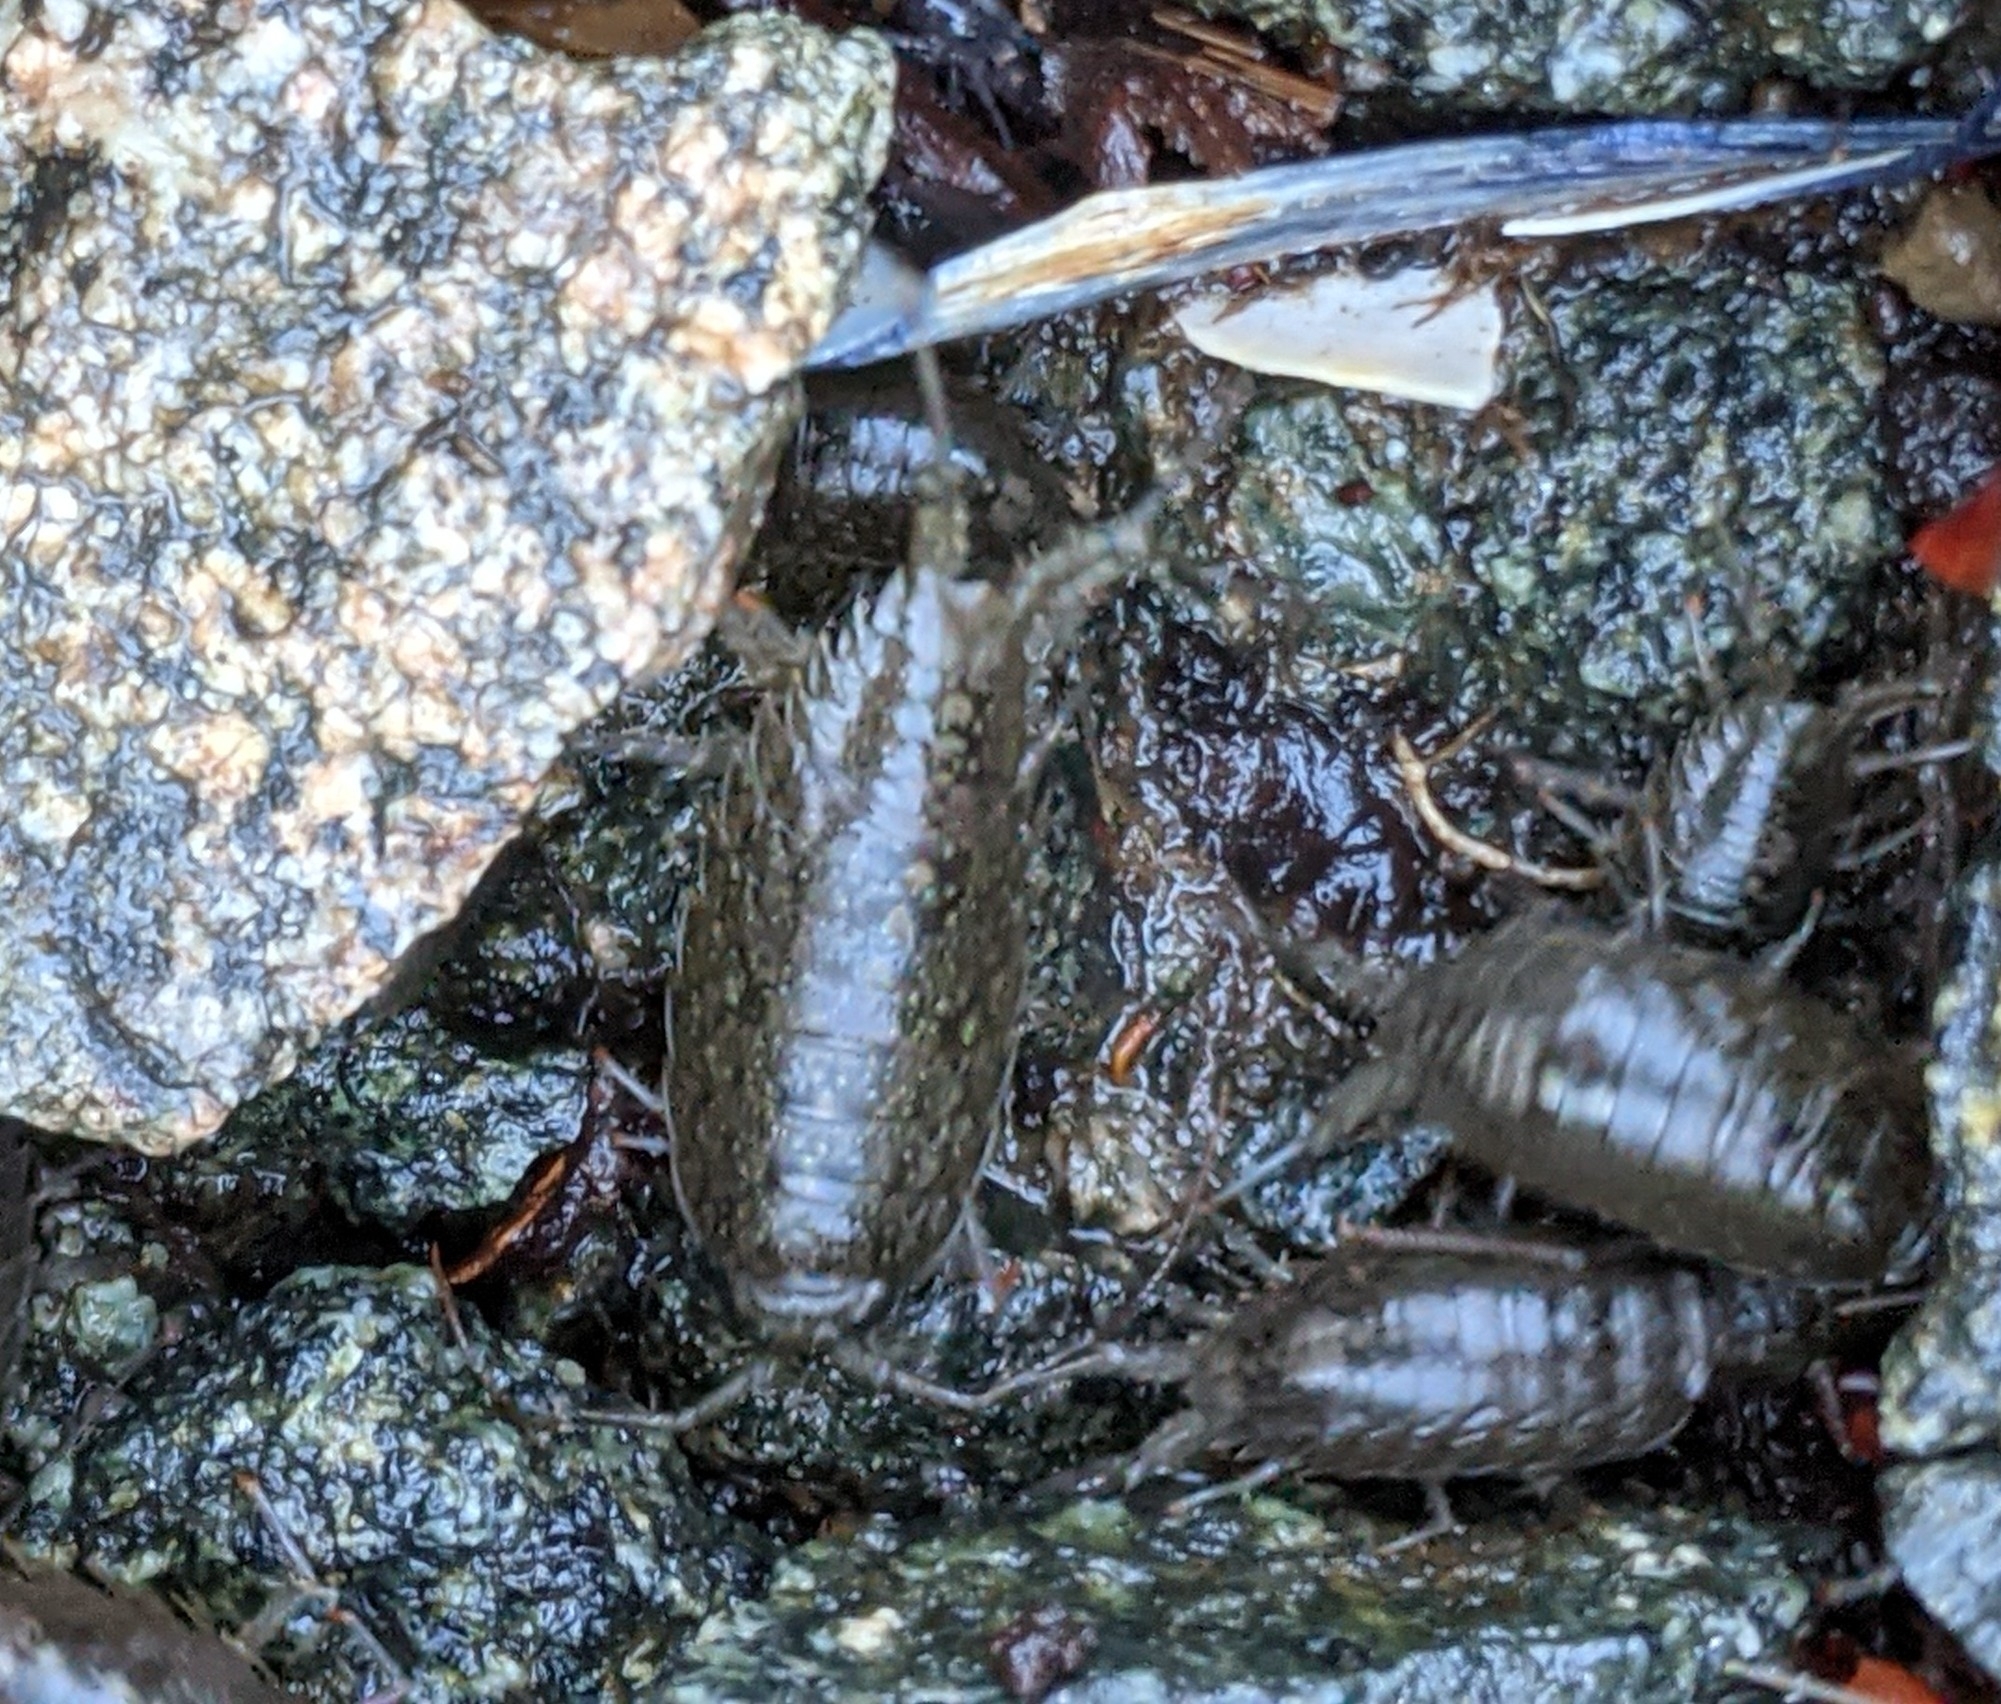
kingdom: Animalia
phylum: Arthropoda
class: Malacostraca
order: Isopoda
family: Ligiidae
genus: Ligia
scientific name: Ligia occidentalis
